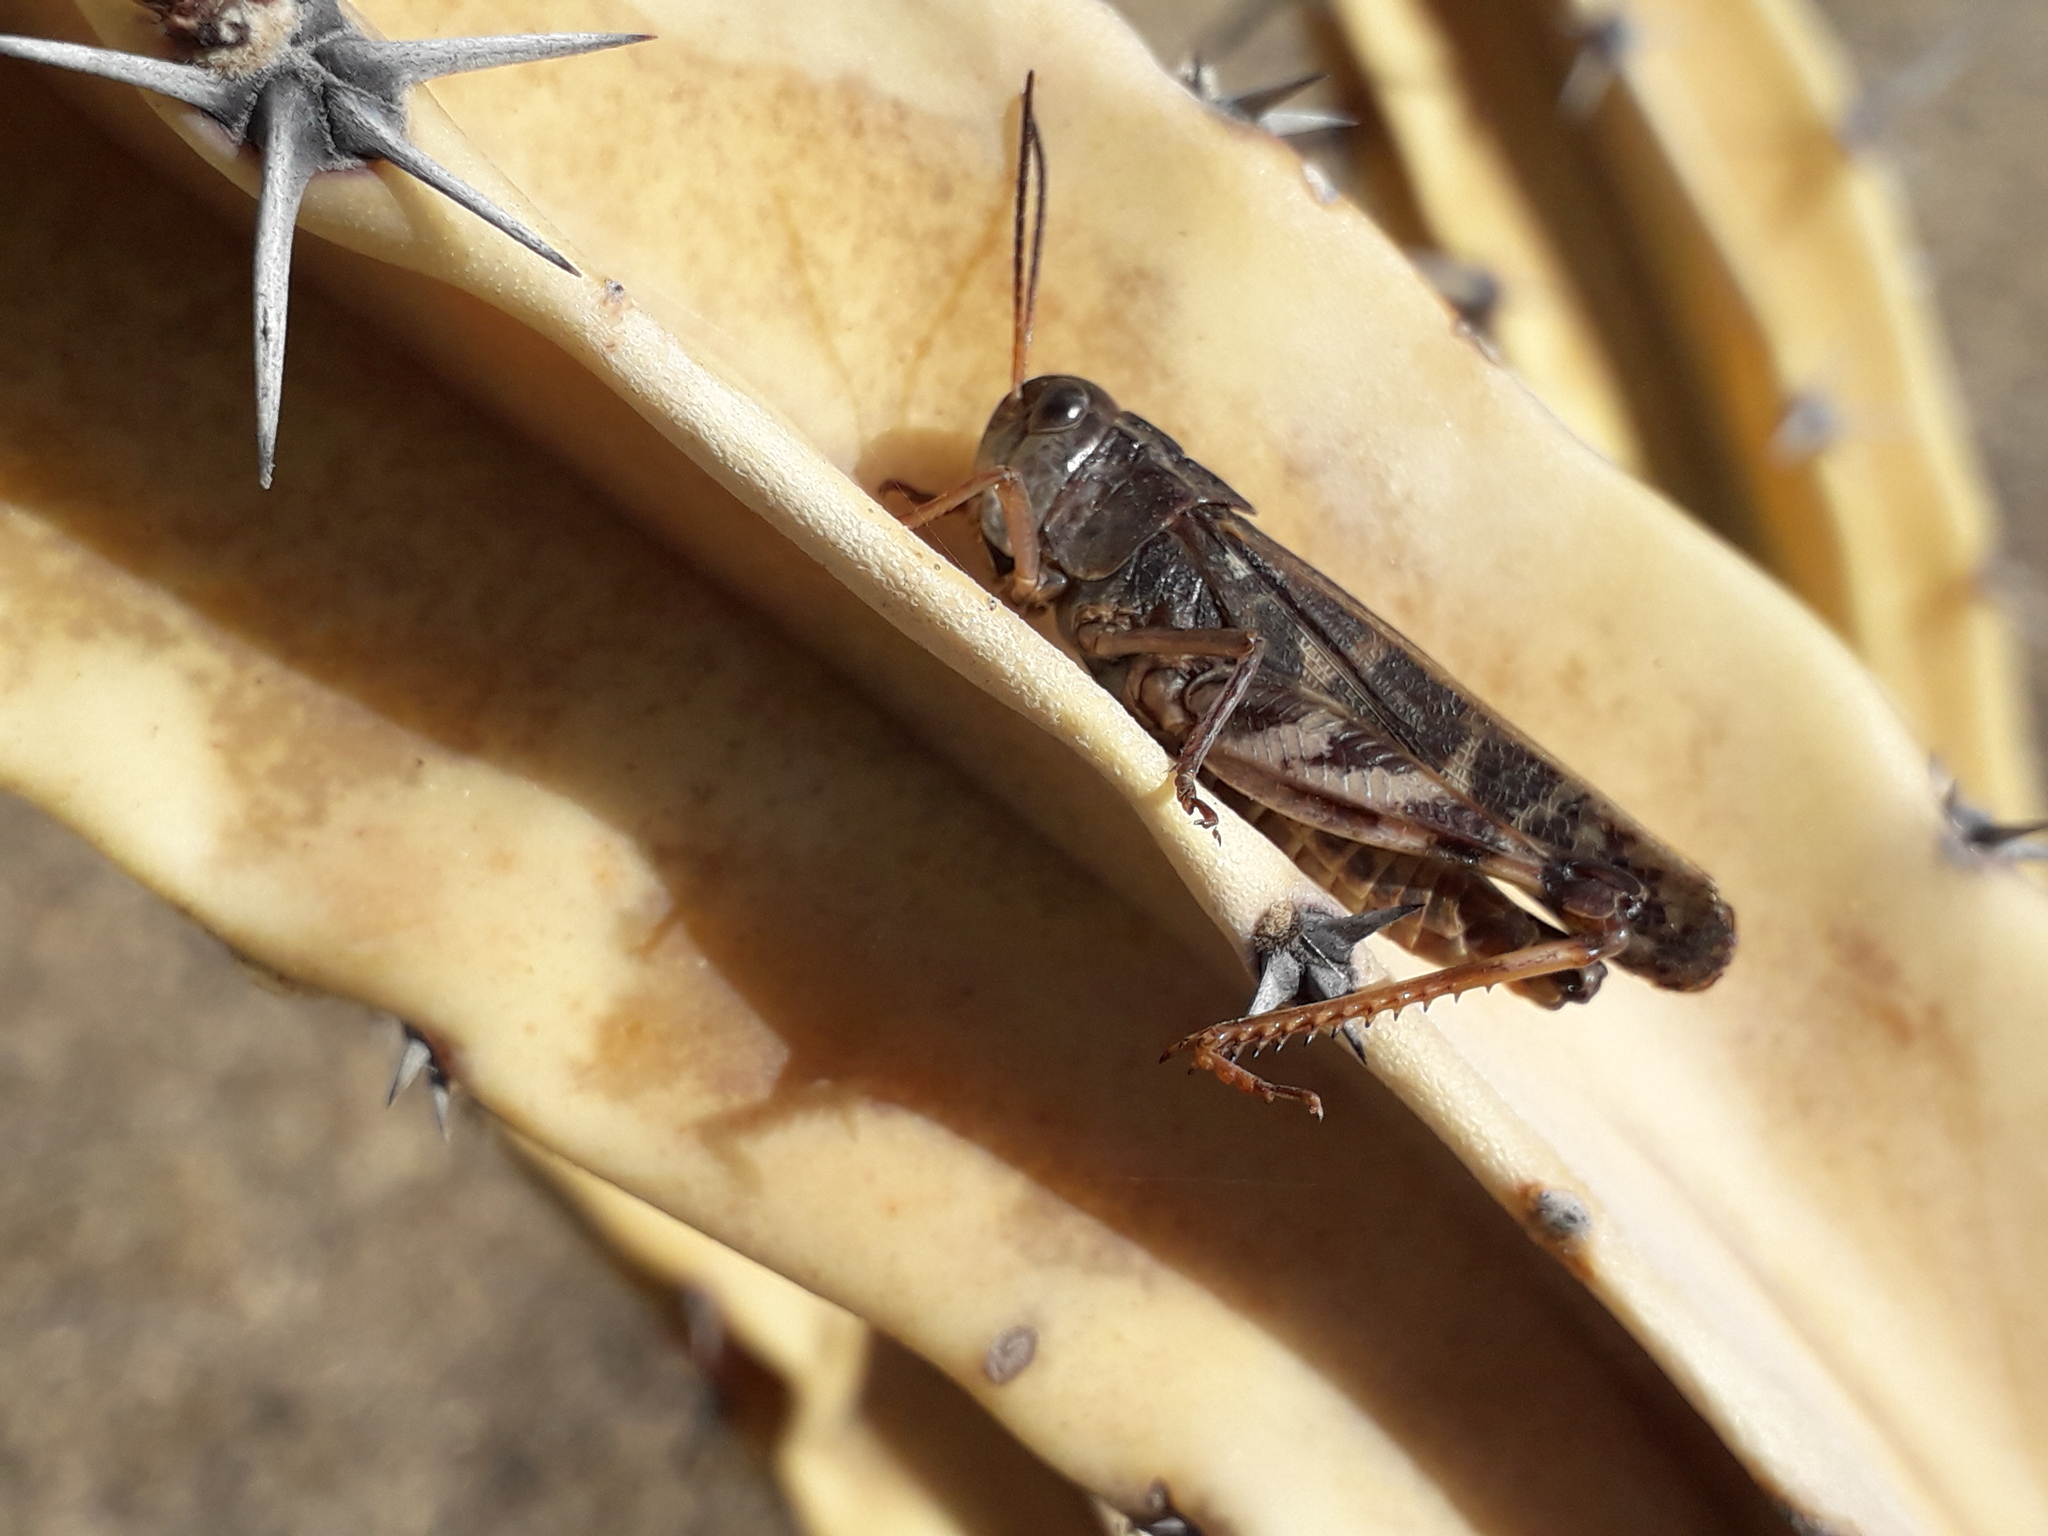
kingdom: Animalia
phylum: Arthropoda
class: Insecta
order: Orthoptera
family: Acrididae
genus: Hippiscus
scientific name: Hippiscus ocelote
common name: Wrinkled grasshopper
